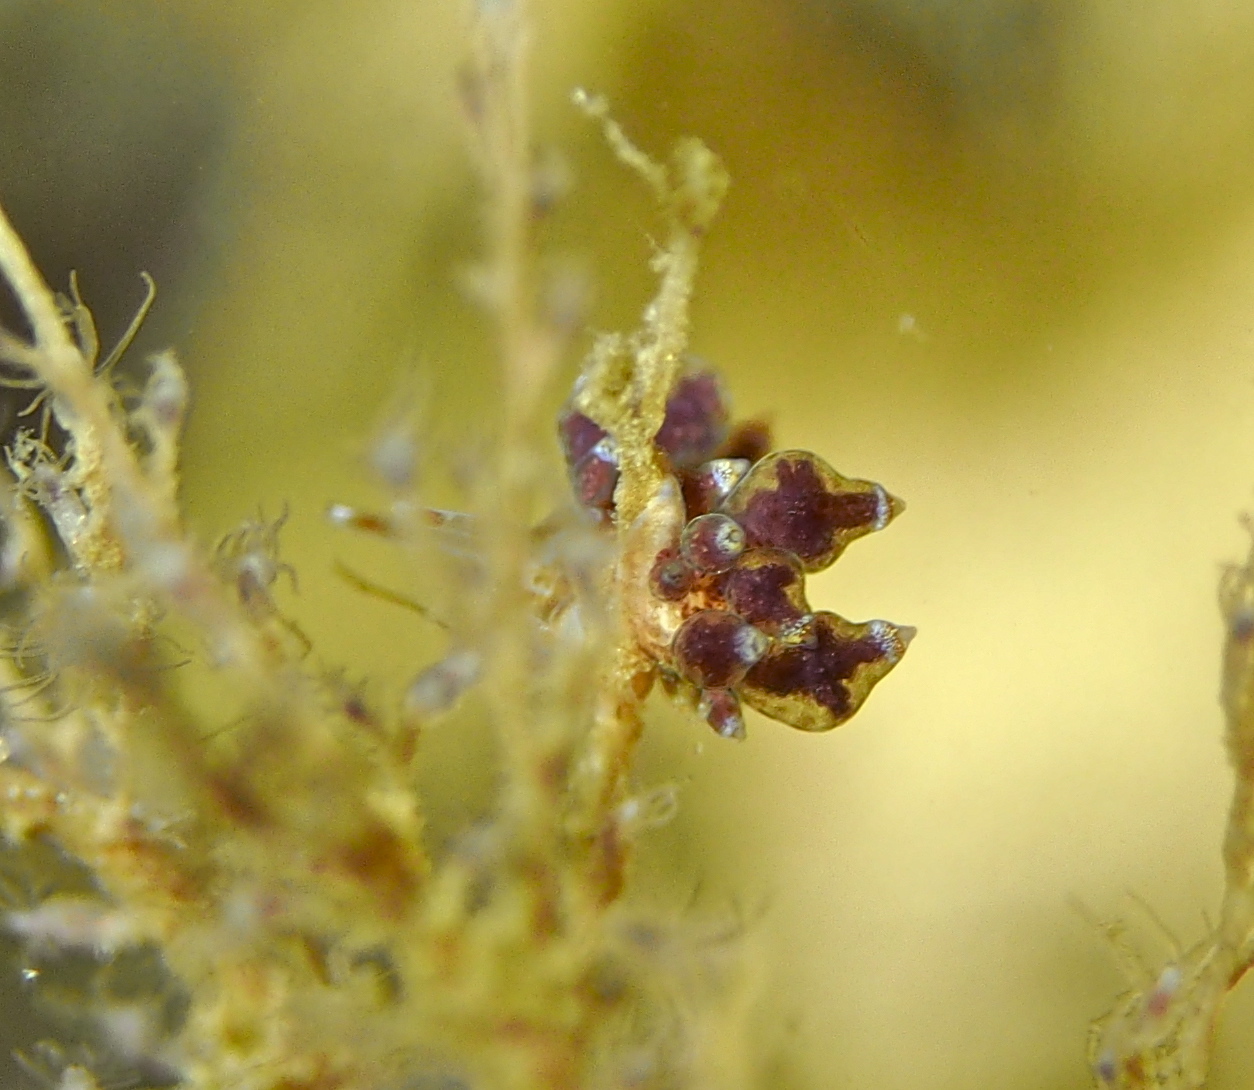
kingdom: Animalia
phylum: Mollusca
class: Gastropoda
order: Nudibranchia
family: Eubranchidae
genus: Eubranchus
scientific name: Eubranchus exiguus
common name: Balloon aeolis
